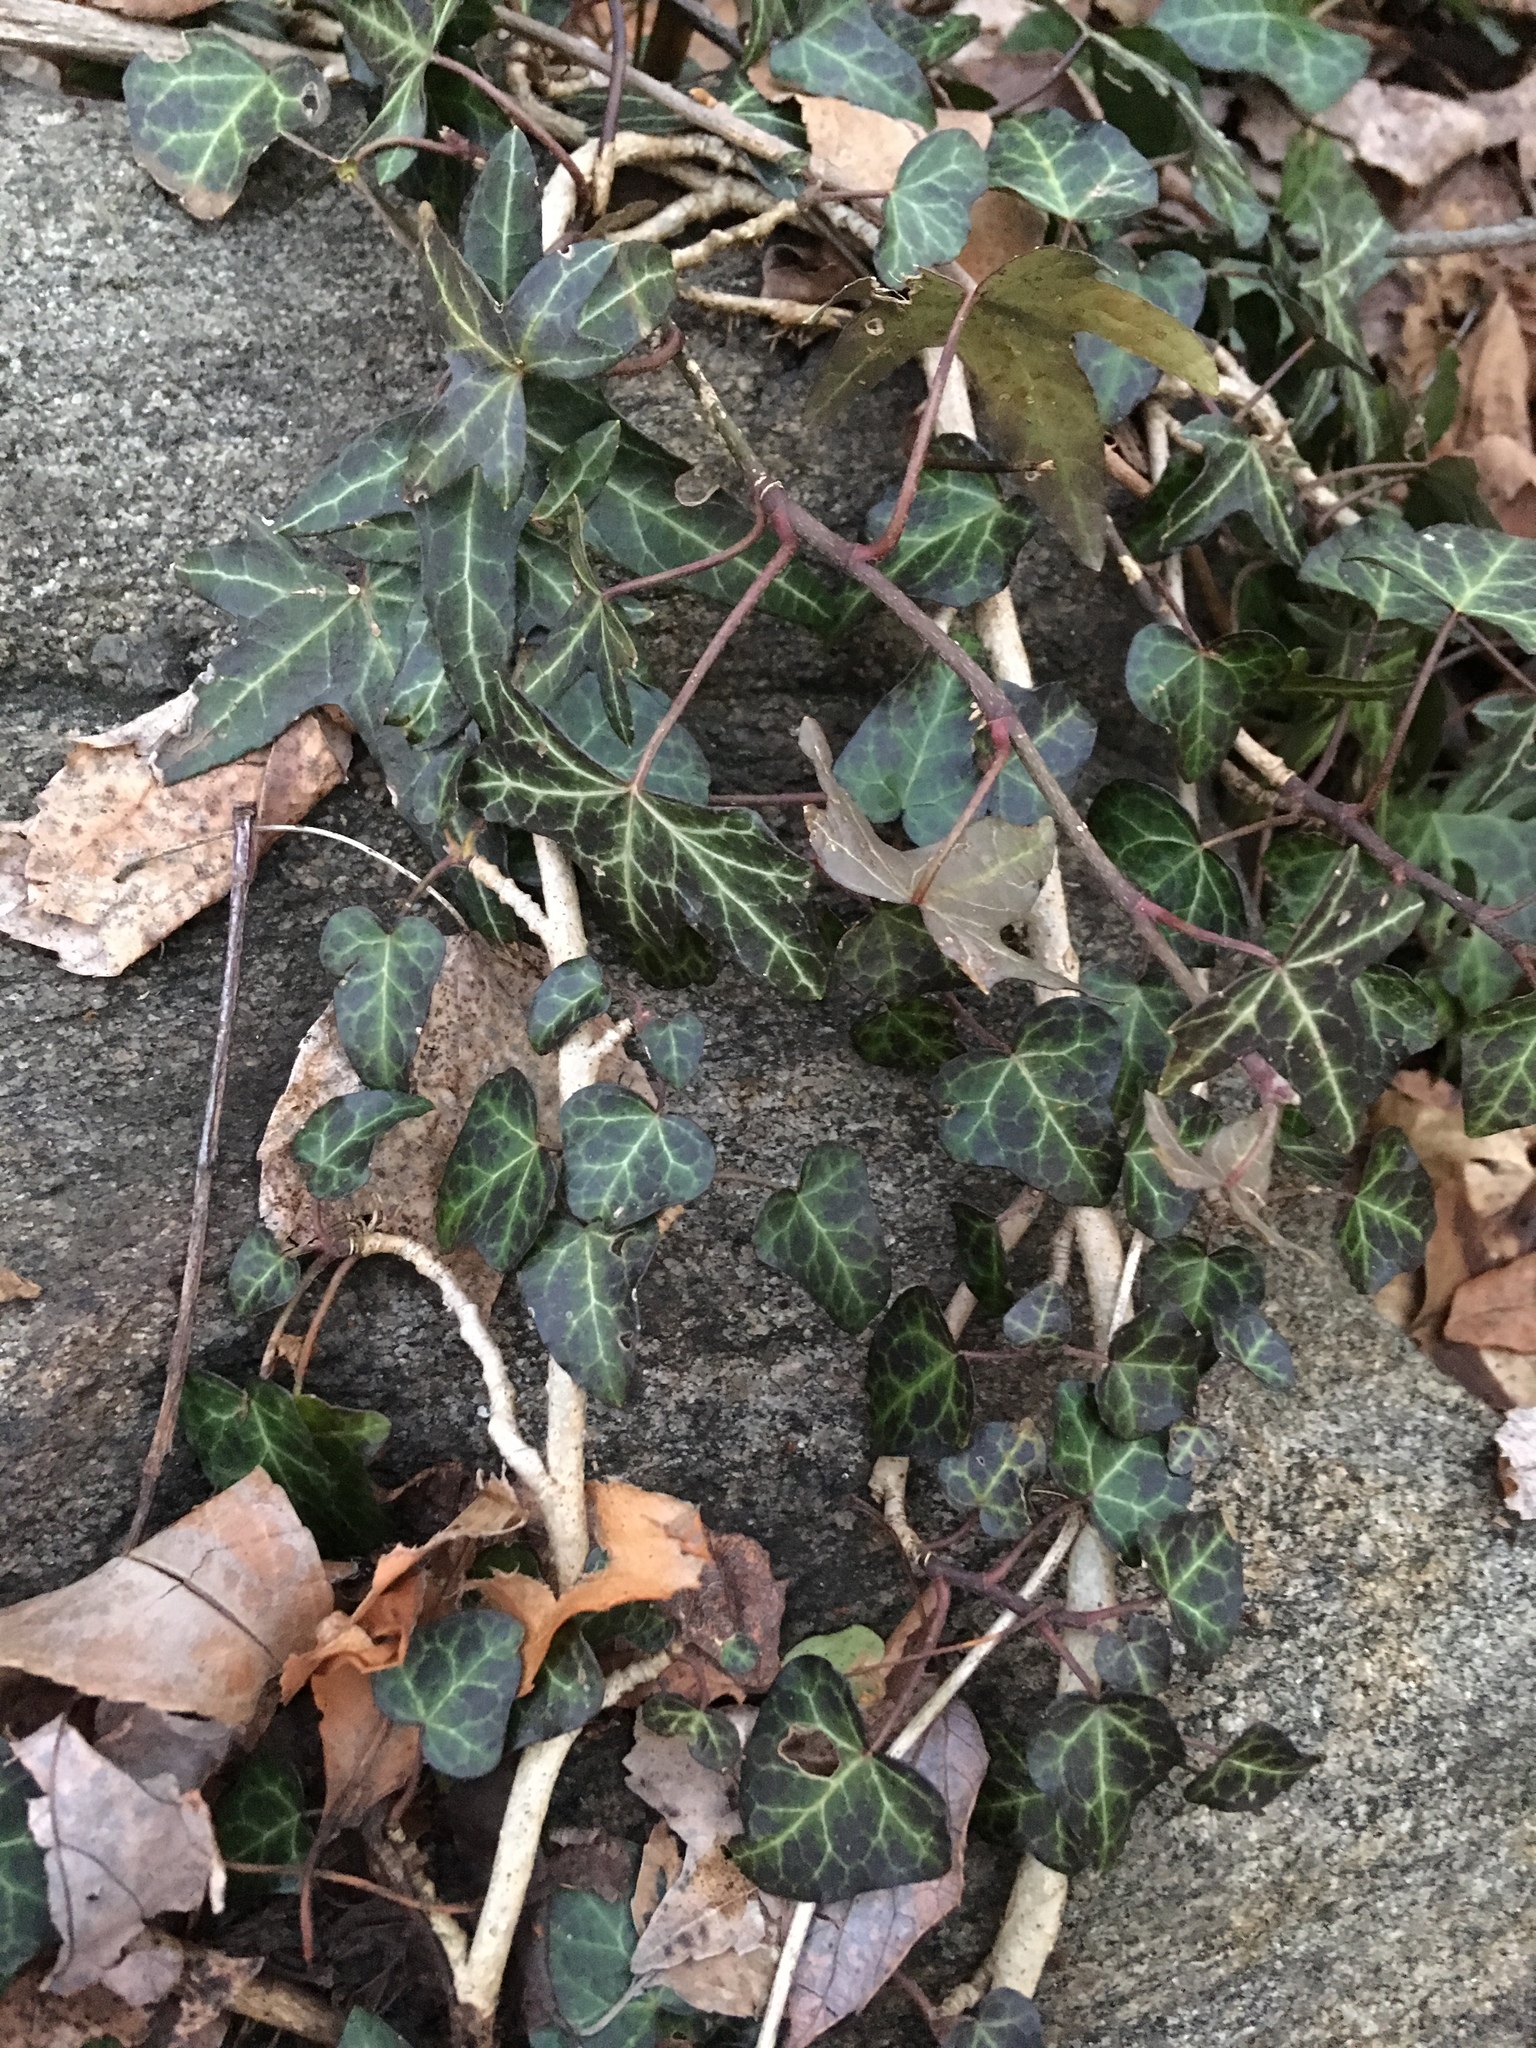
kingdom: Plantae
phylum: Tracheophyta
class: Magnoliopsida
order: Apiales
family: Araliaceae
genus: Hedera
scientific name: Hedera helix
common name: Ivy
